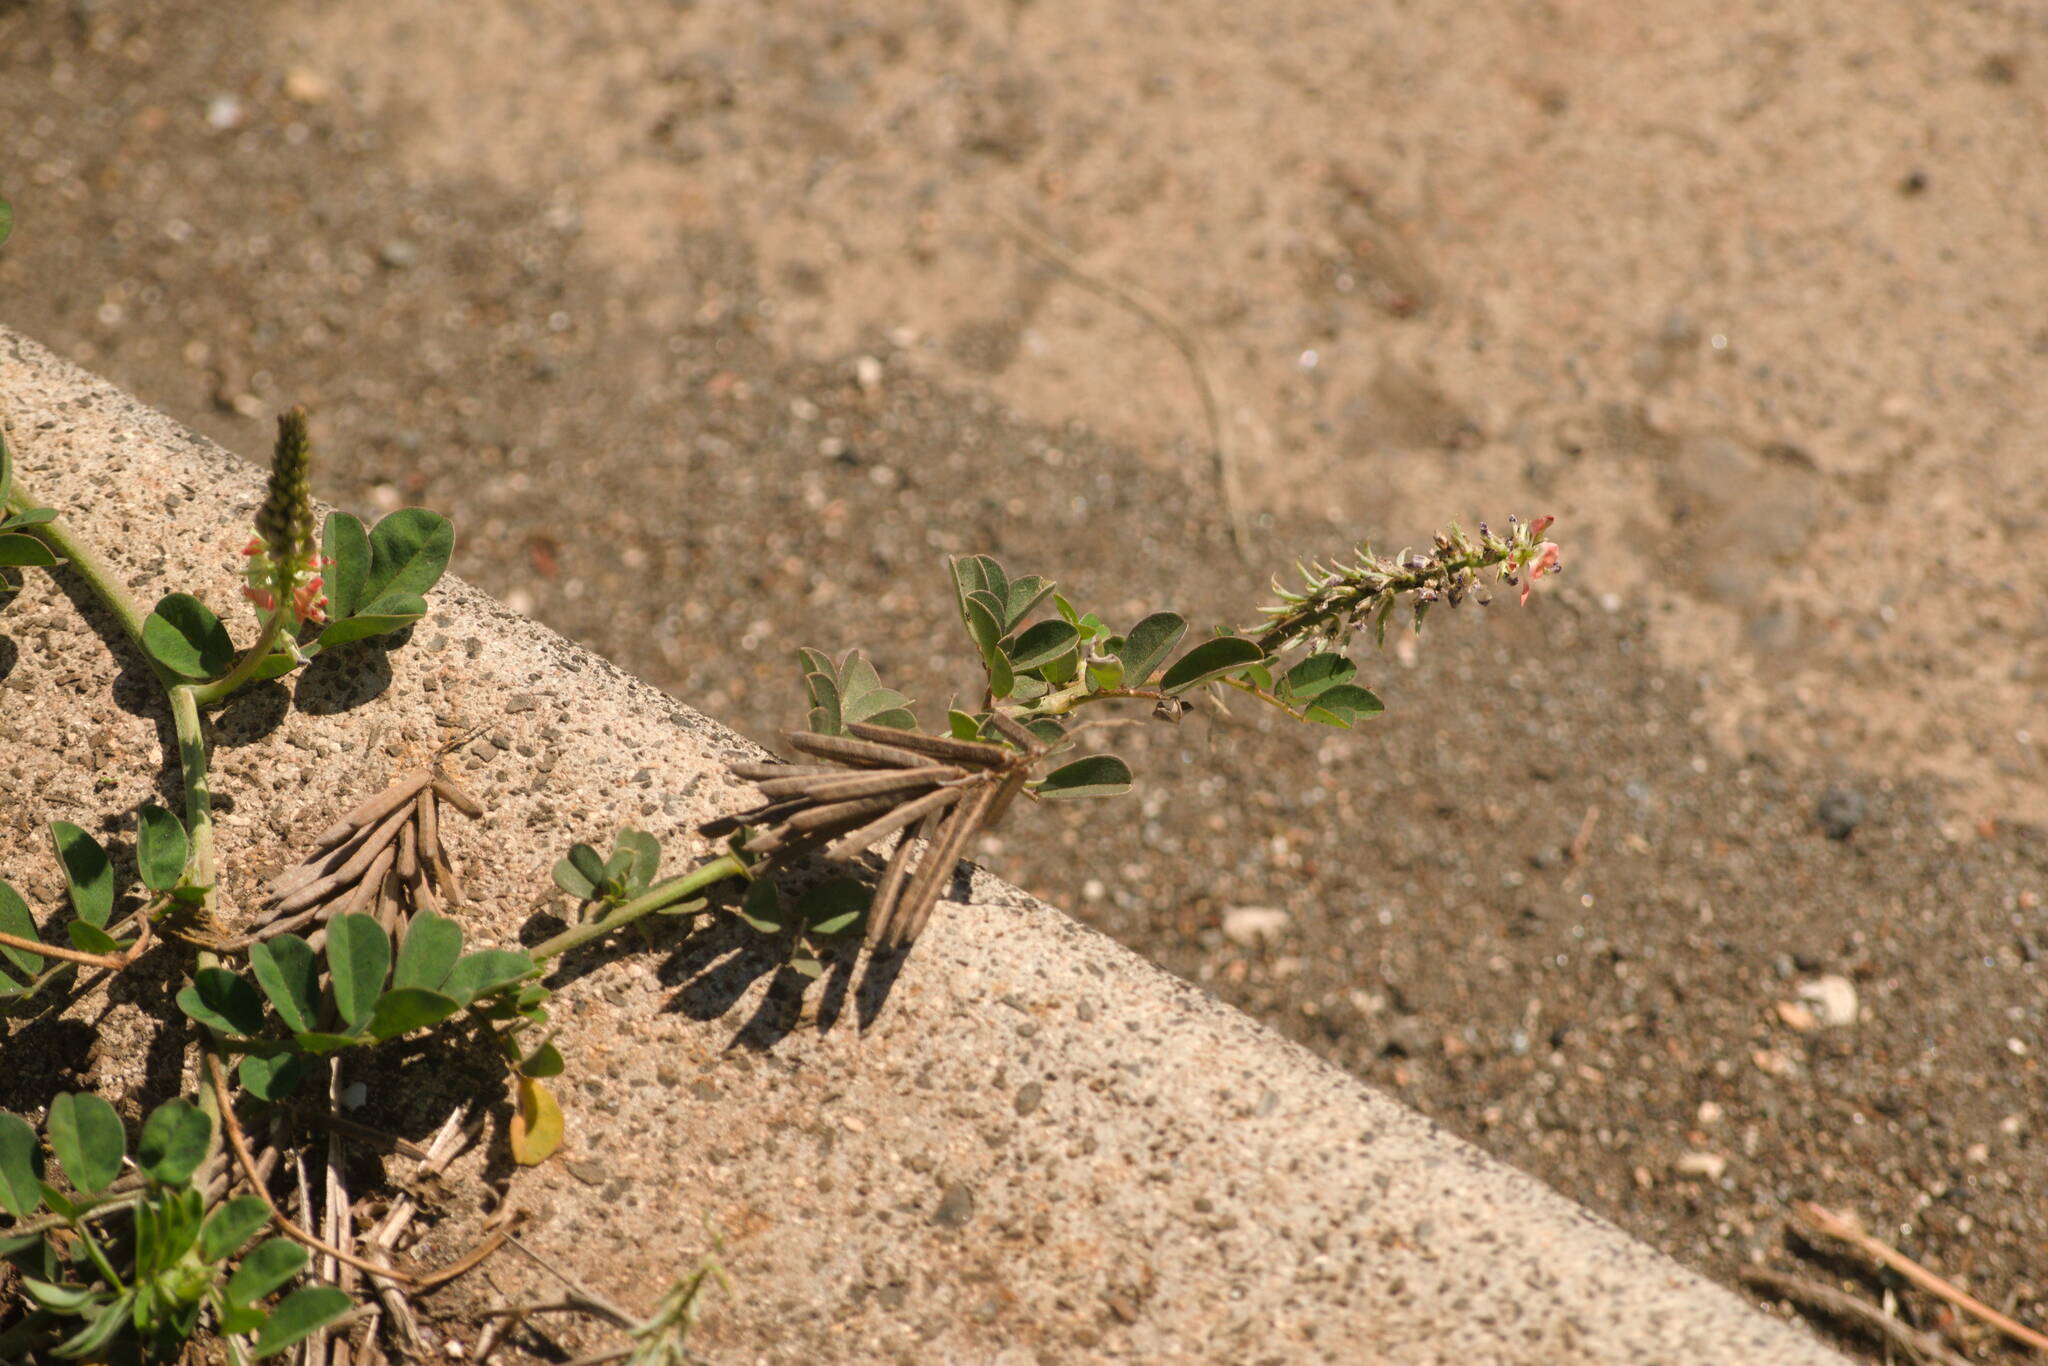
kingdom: Plantae
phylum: Tracheophyta
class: Magnoliopsida
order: Fabales
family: Fabaceae
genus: Indigofera
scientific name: Indigofera spicata
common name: Creeping indigo
